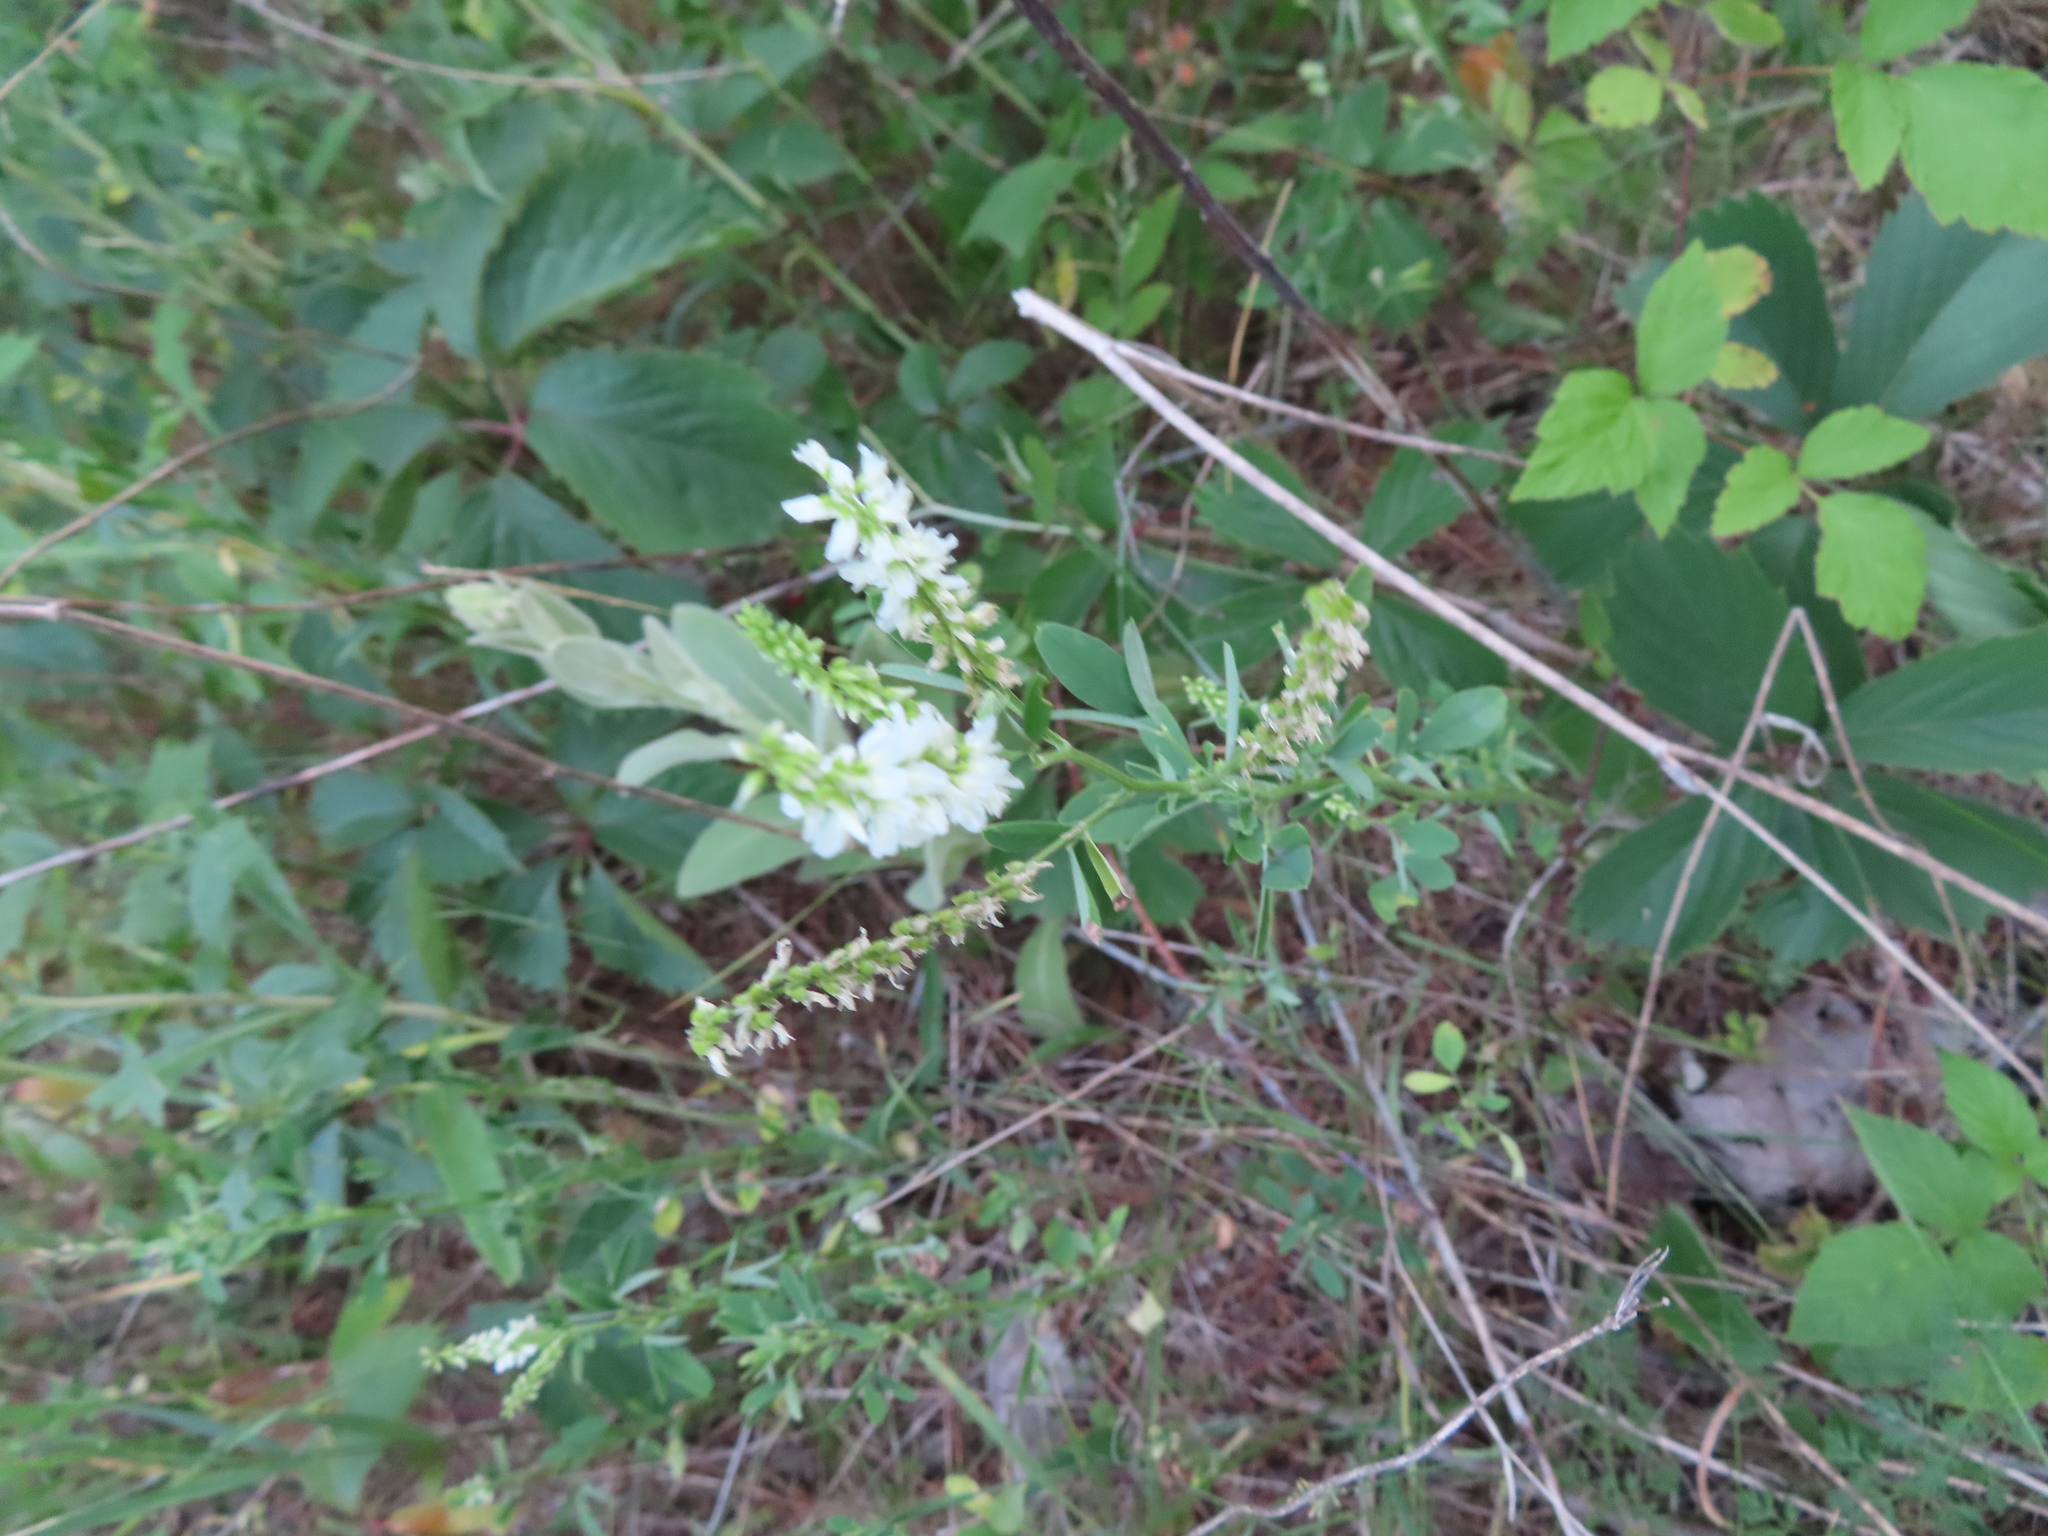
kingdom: Plantae
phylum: Tracheophyta
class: Magnoliopsida
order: Fabales
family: Fabaceae
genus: Melilotus
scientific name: Melilotus albus
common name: White melilot
